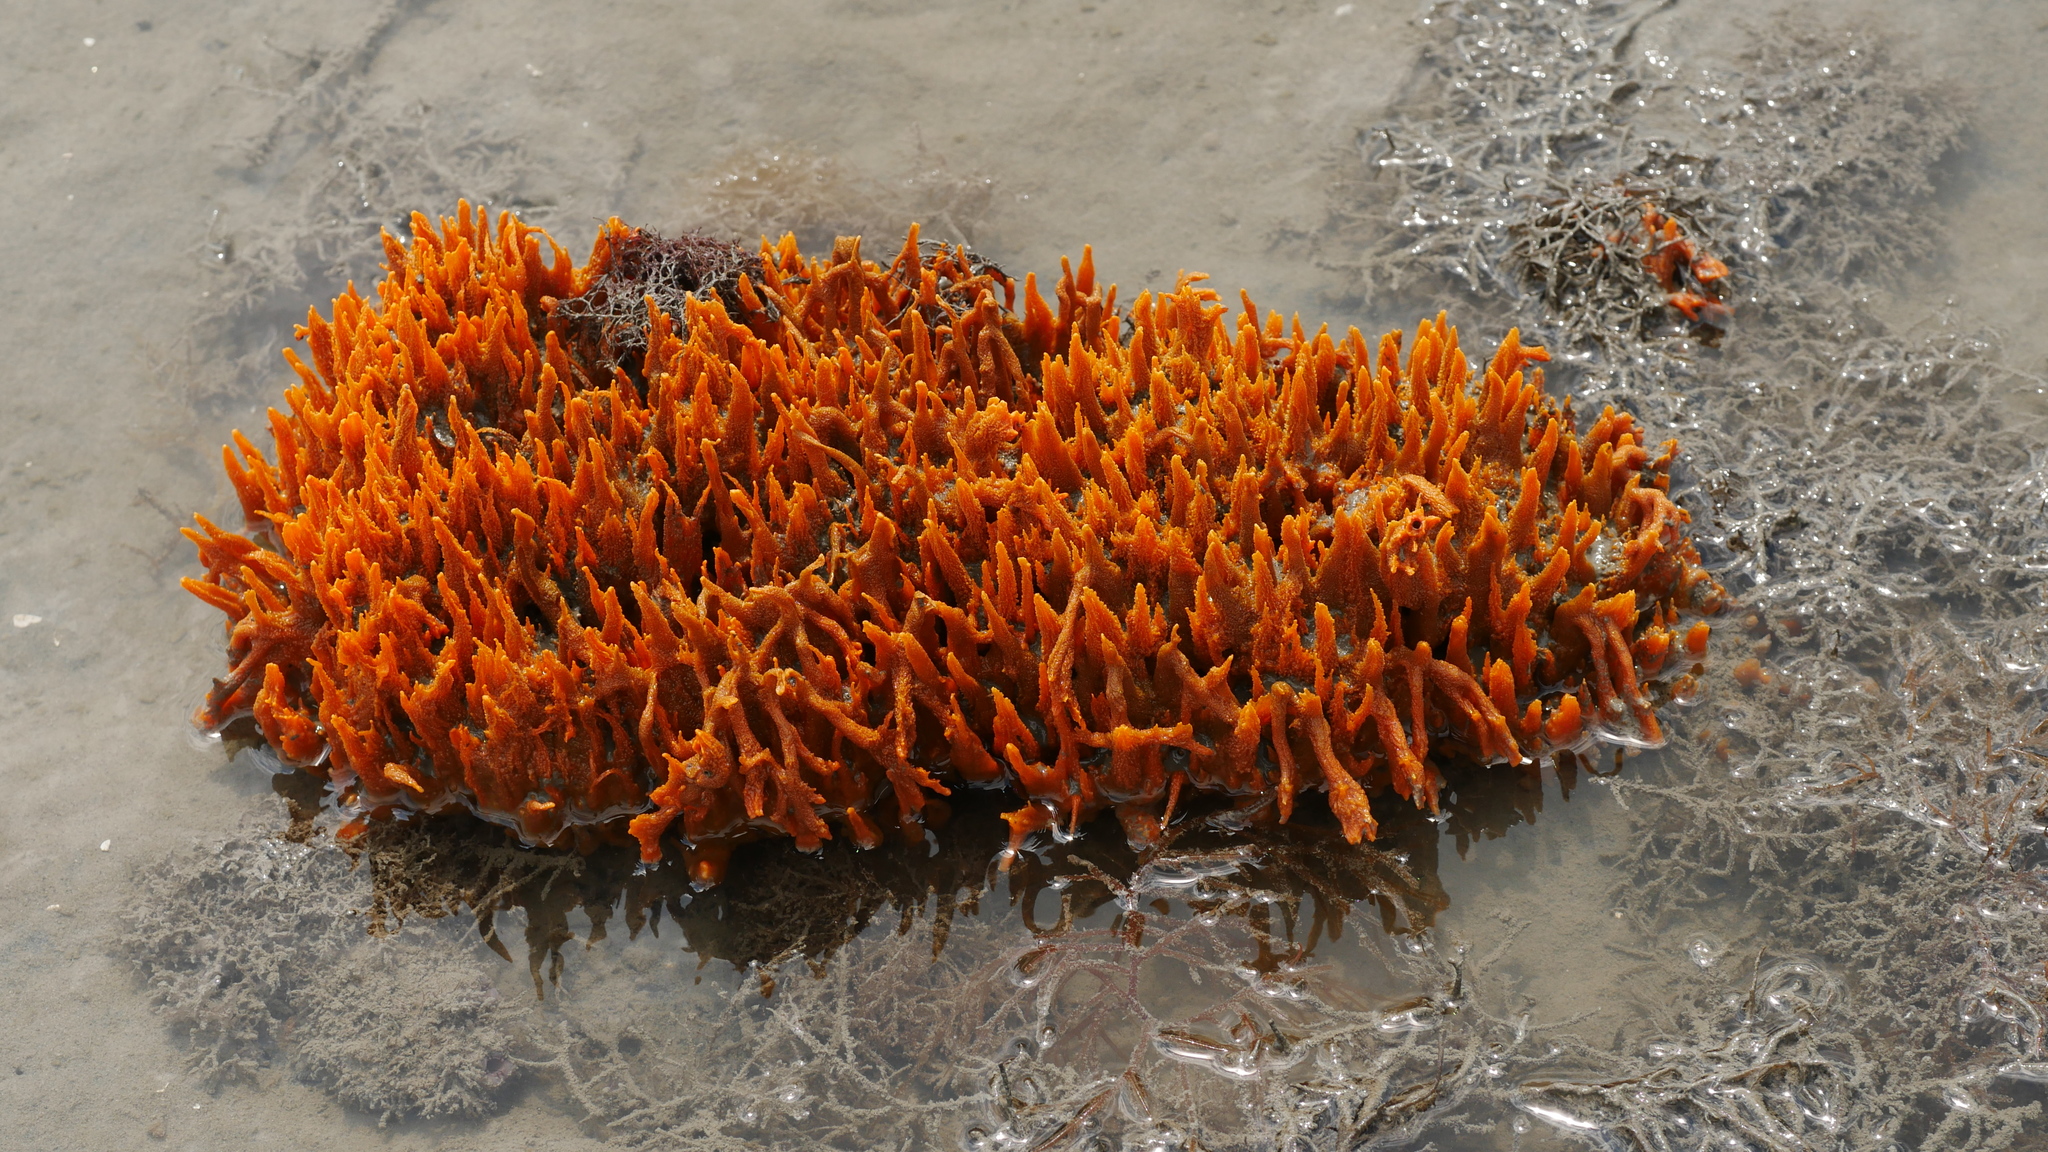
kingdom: Animalia
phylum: Porifera
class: Demospongiae
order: Suberitida
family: Halichondriidae
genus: Hymeniacidon
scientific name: Hymeniacidon heliophila
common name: Diurnal horny sponge
